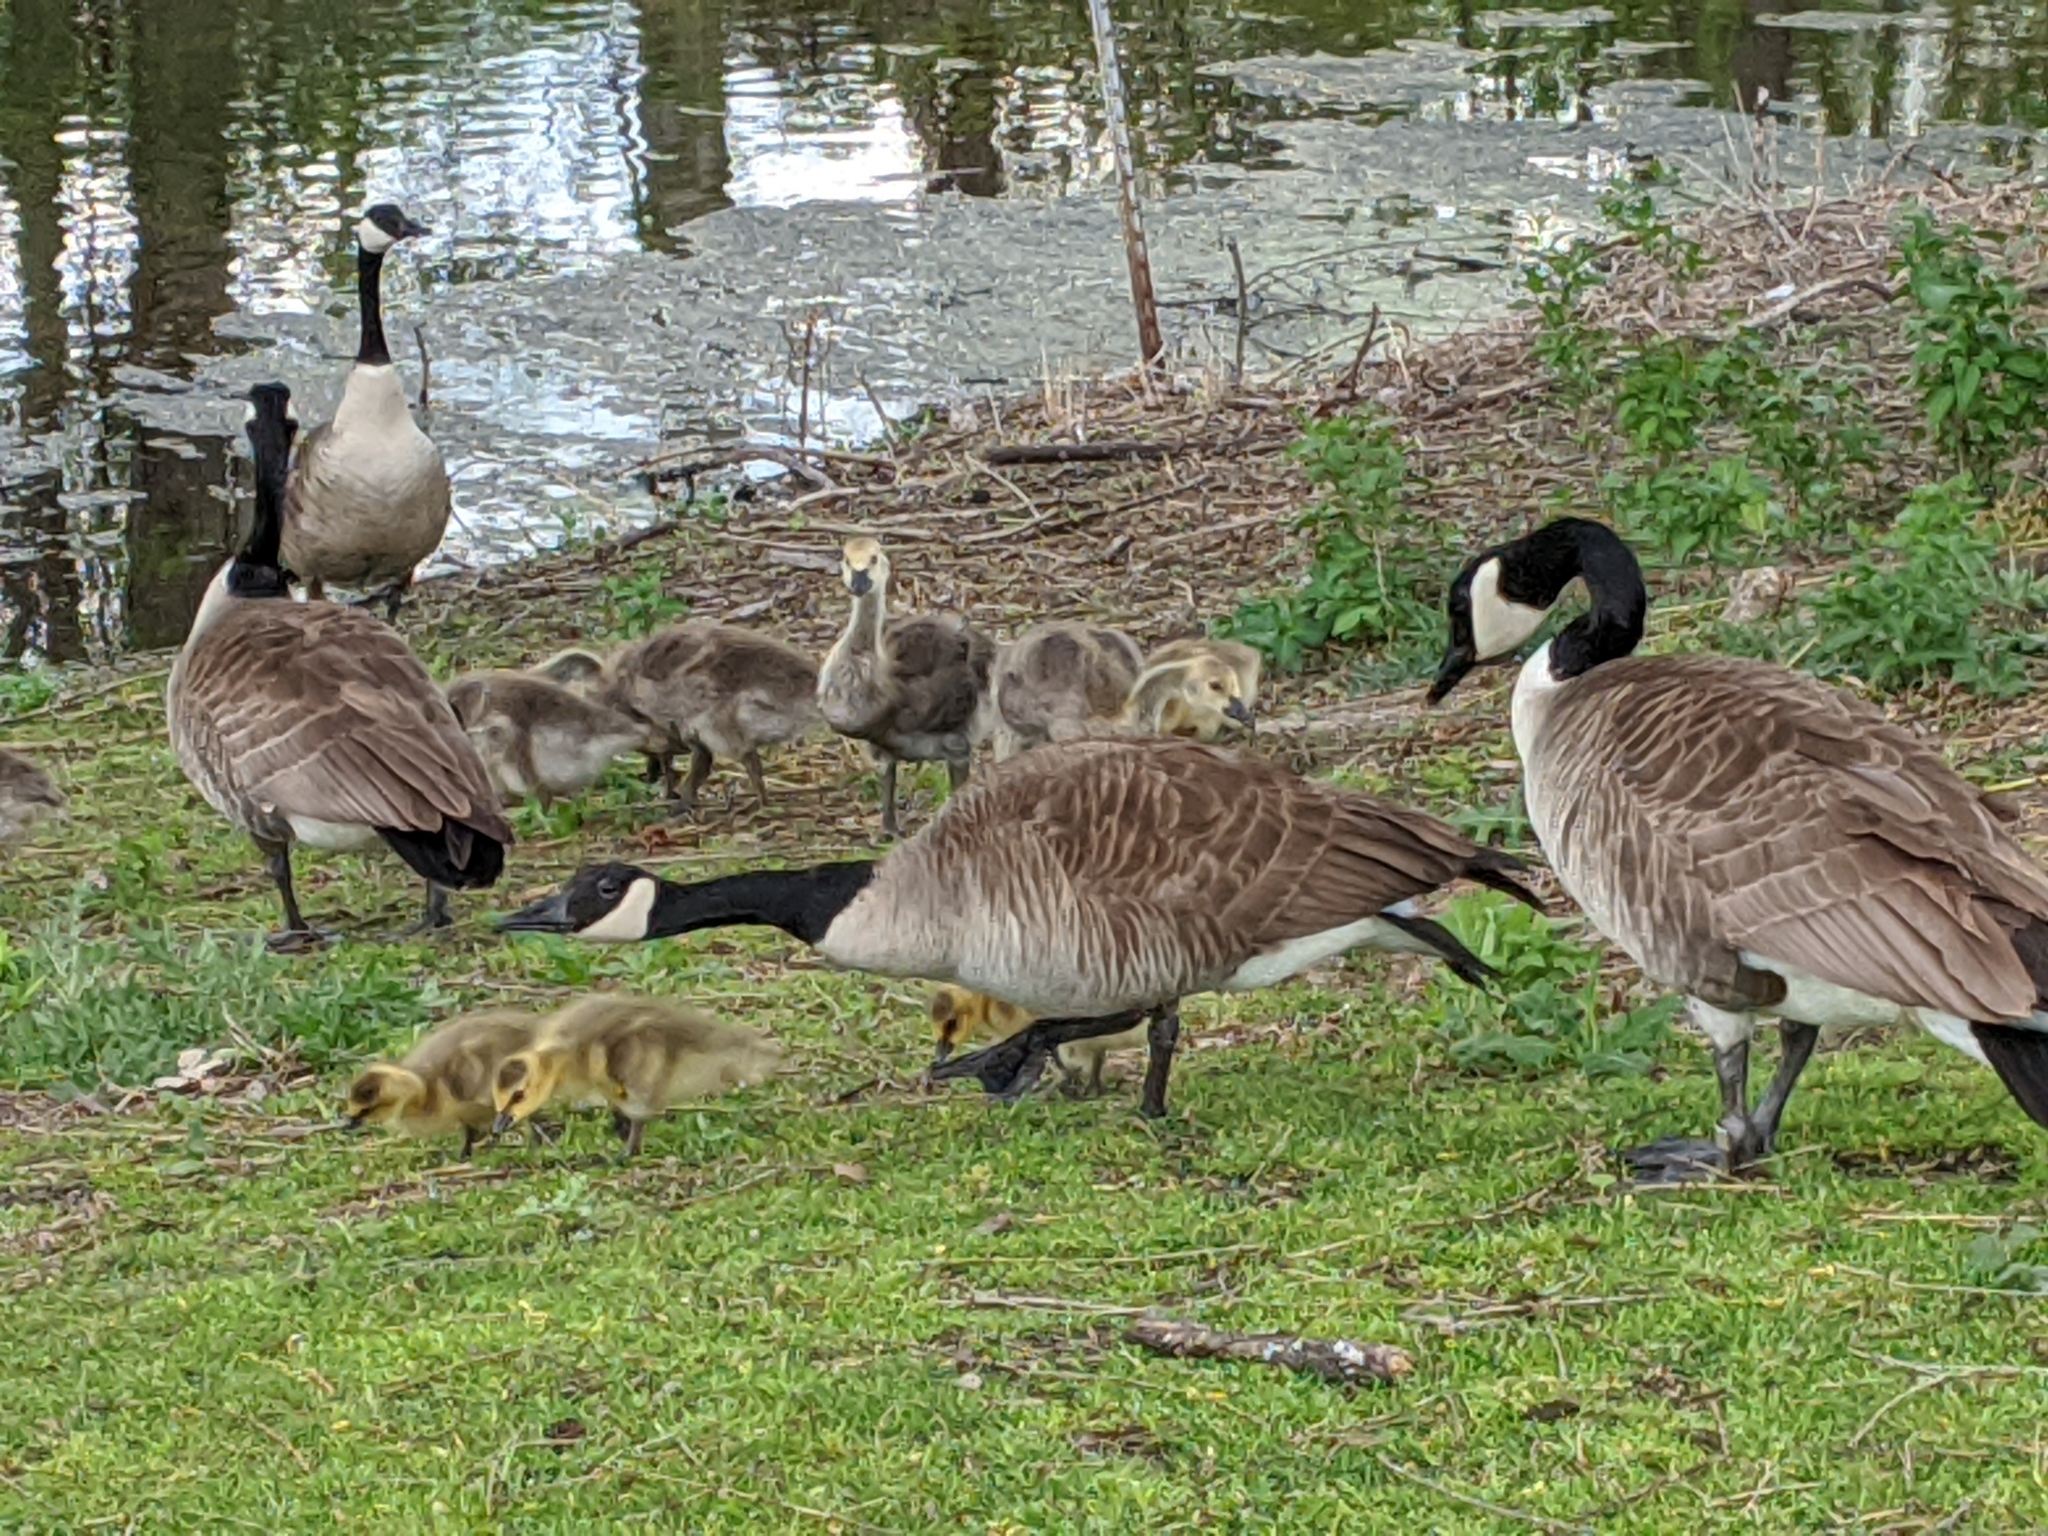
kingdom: Animalia
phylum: Chordata
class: Aves
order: Anseriformes
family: Anatidae
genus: Branta
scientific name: Branta canadensis
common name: Canada goose
